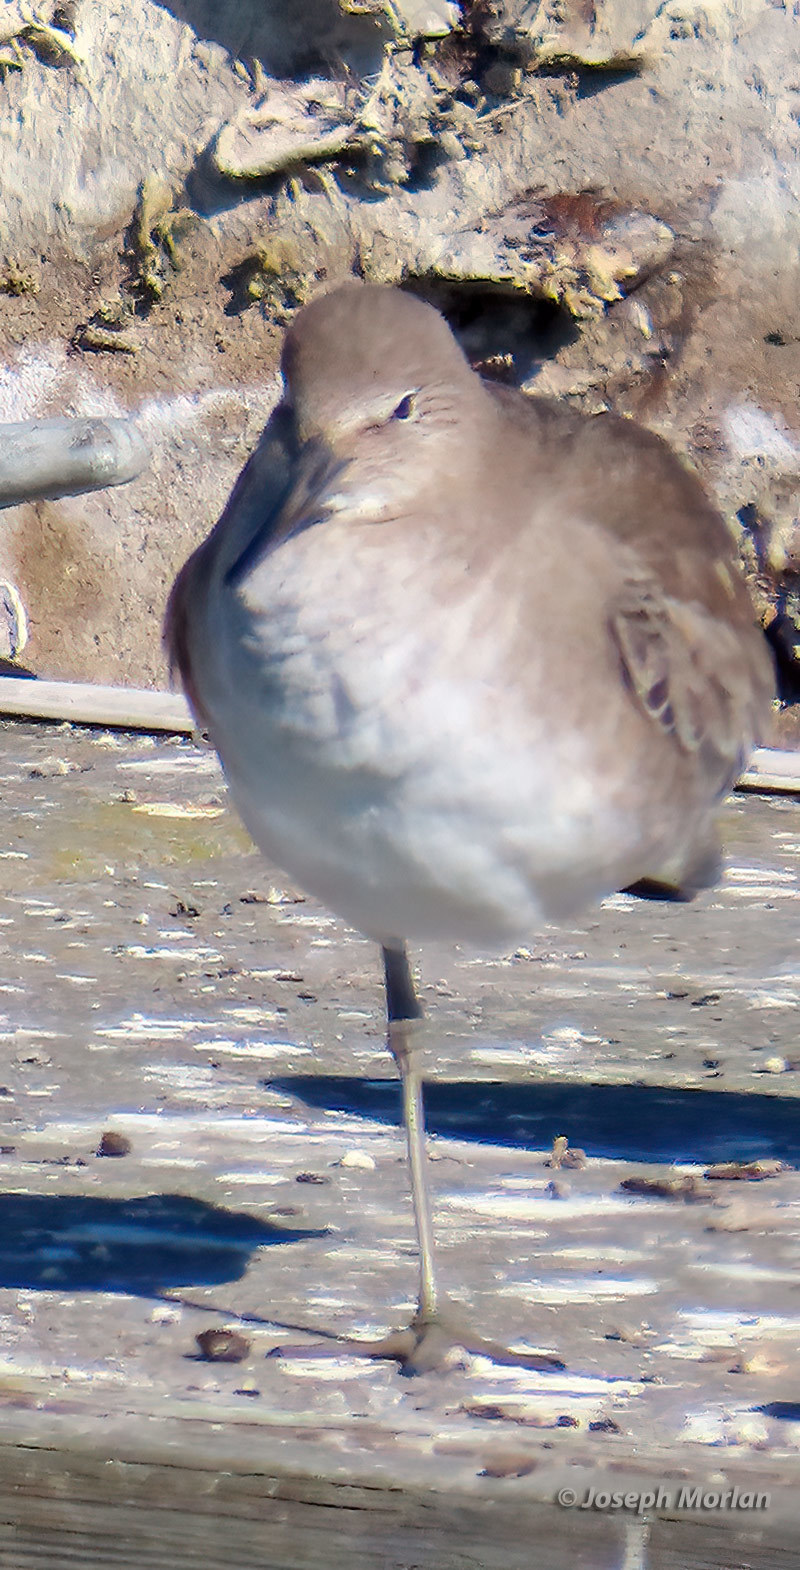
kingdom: Animalia
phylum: Chordata
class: Aves
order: Charadriiformes
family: Scolopacidae
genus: Tringa
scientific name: Tringa semipalmata
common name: Willet
